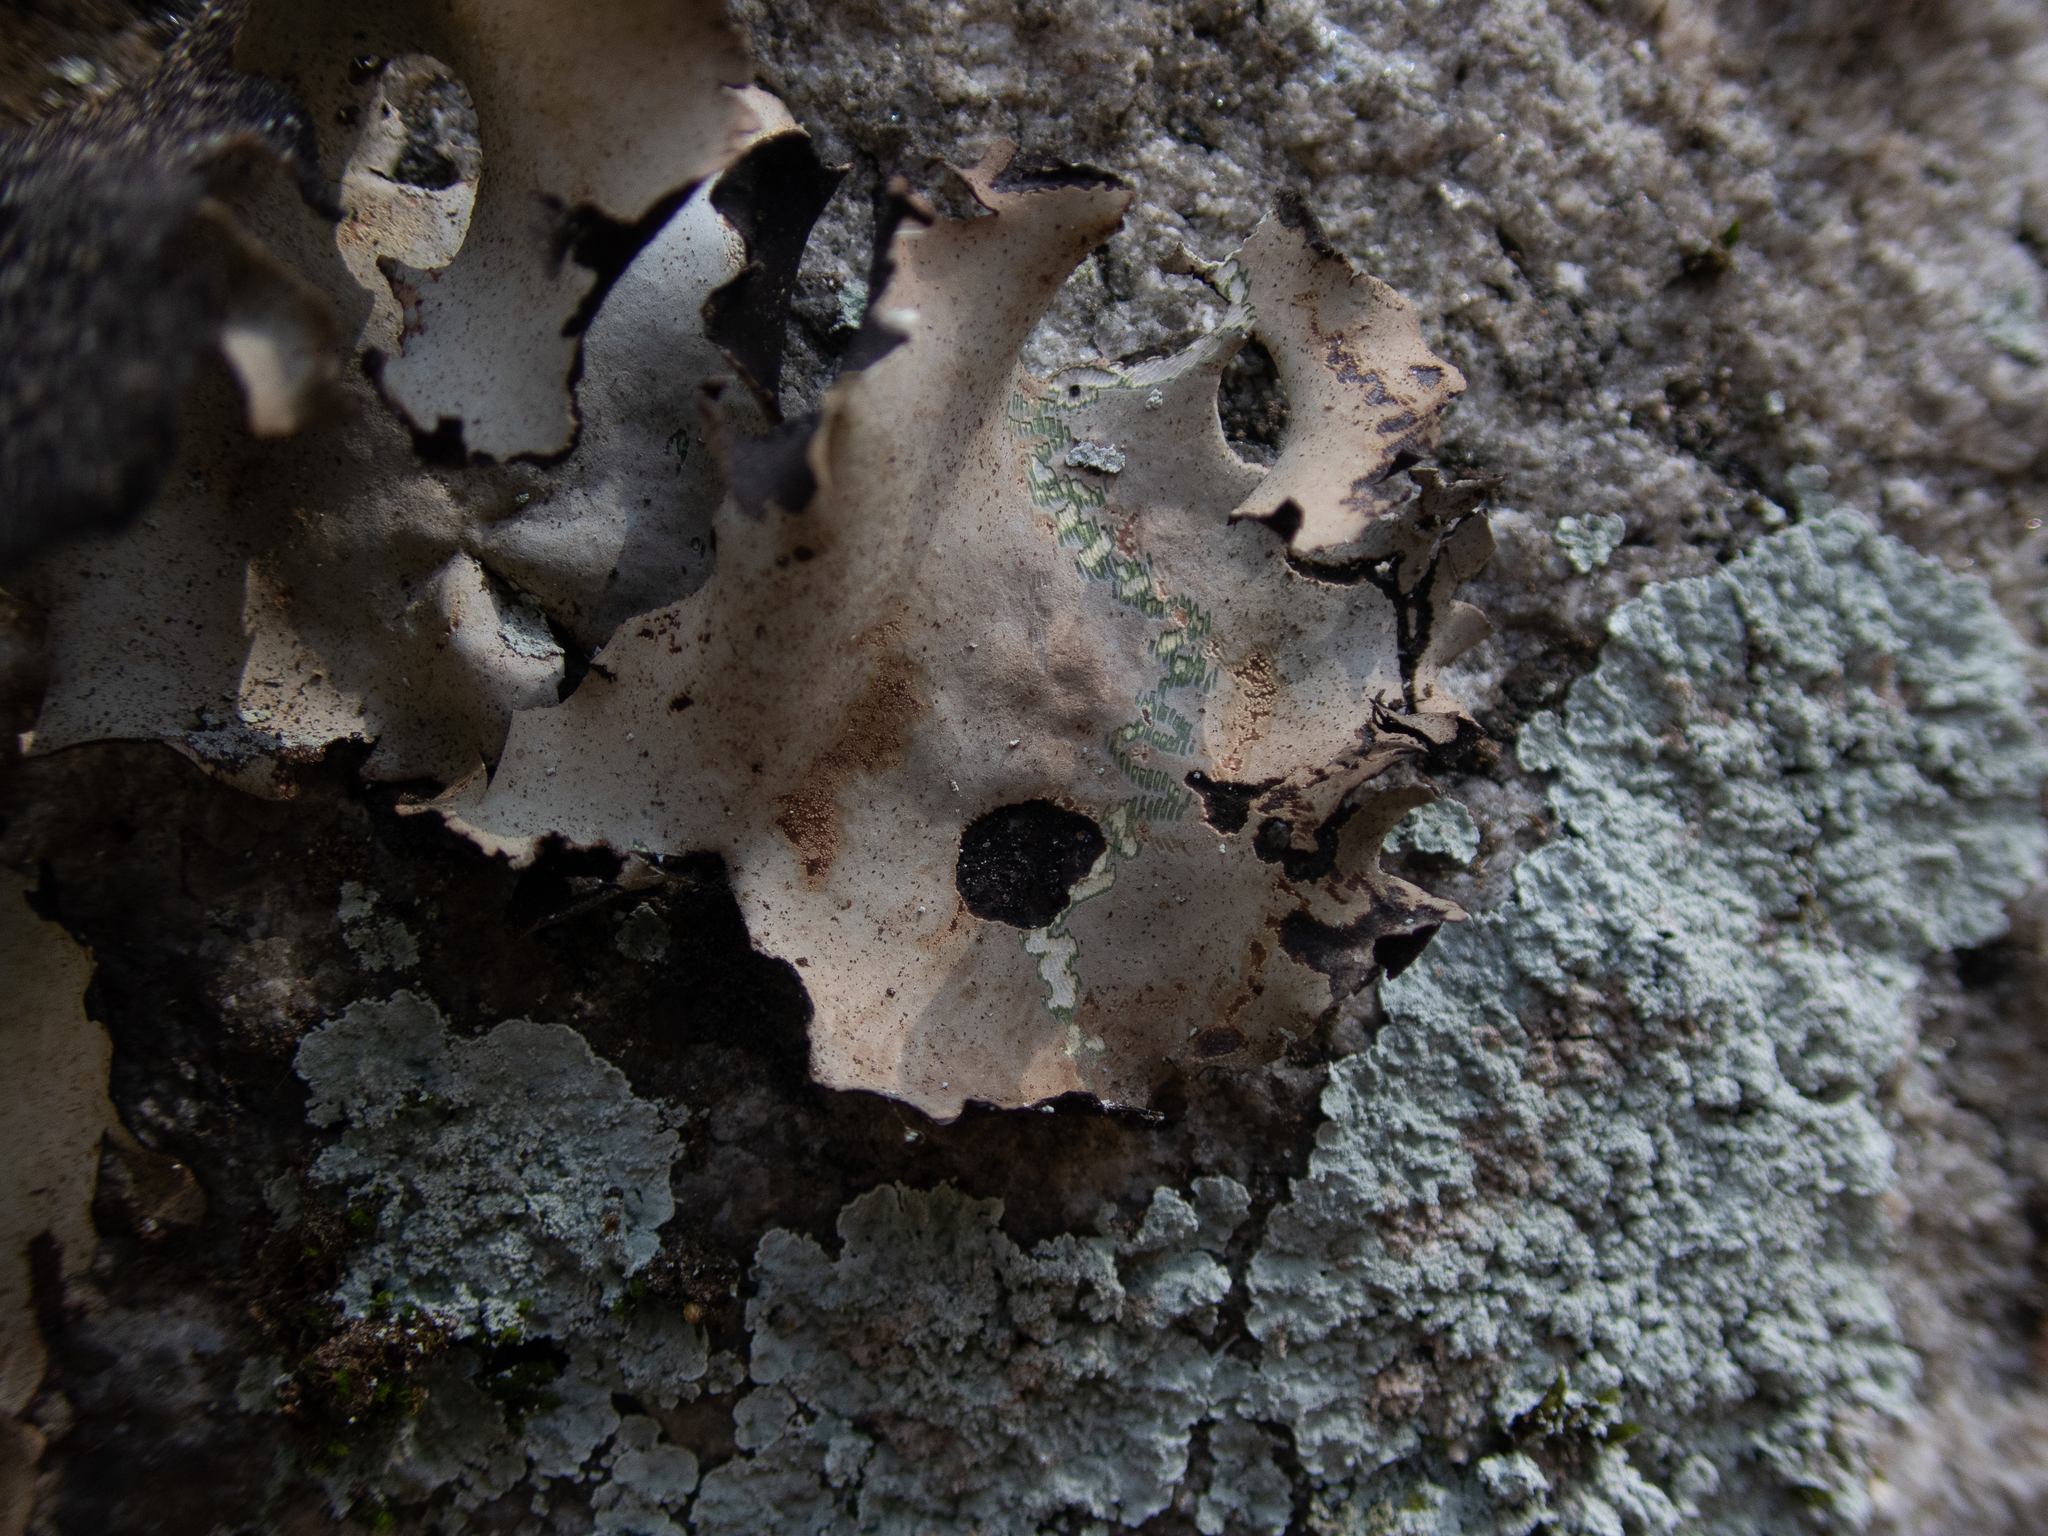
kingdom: Fungi
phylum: Ascomycota
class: Lecanoromycetes
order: Umbilicariales
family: Umbilicariaceae
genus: Umbilicaria
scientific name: Umbilicaria mammulata
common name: Smooth rock tripe
